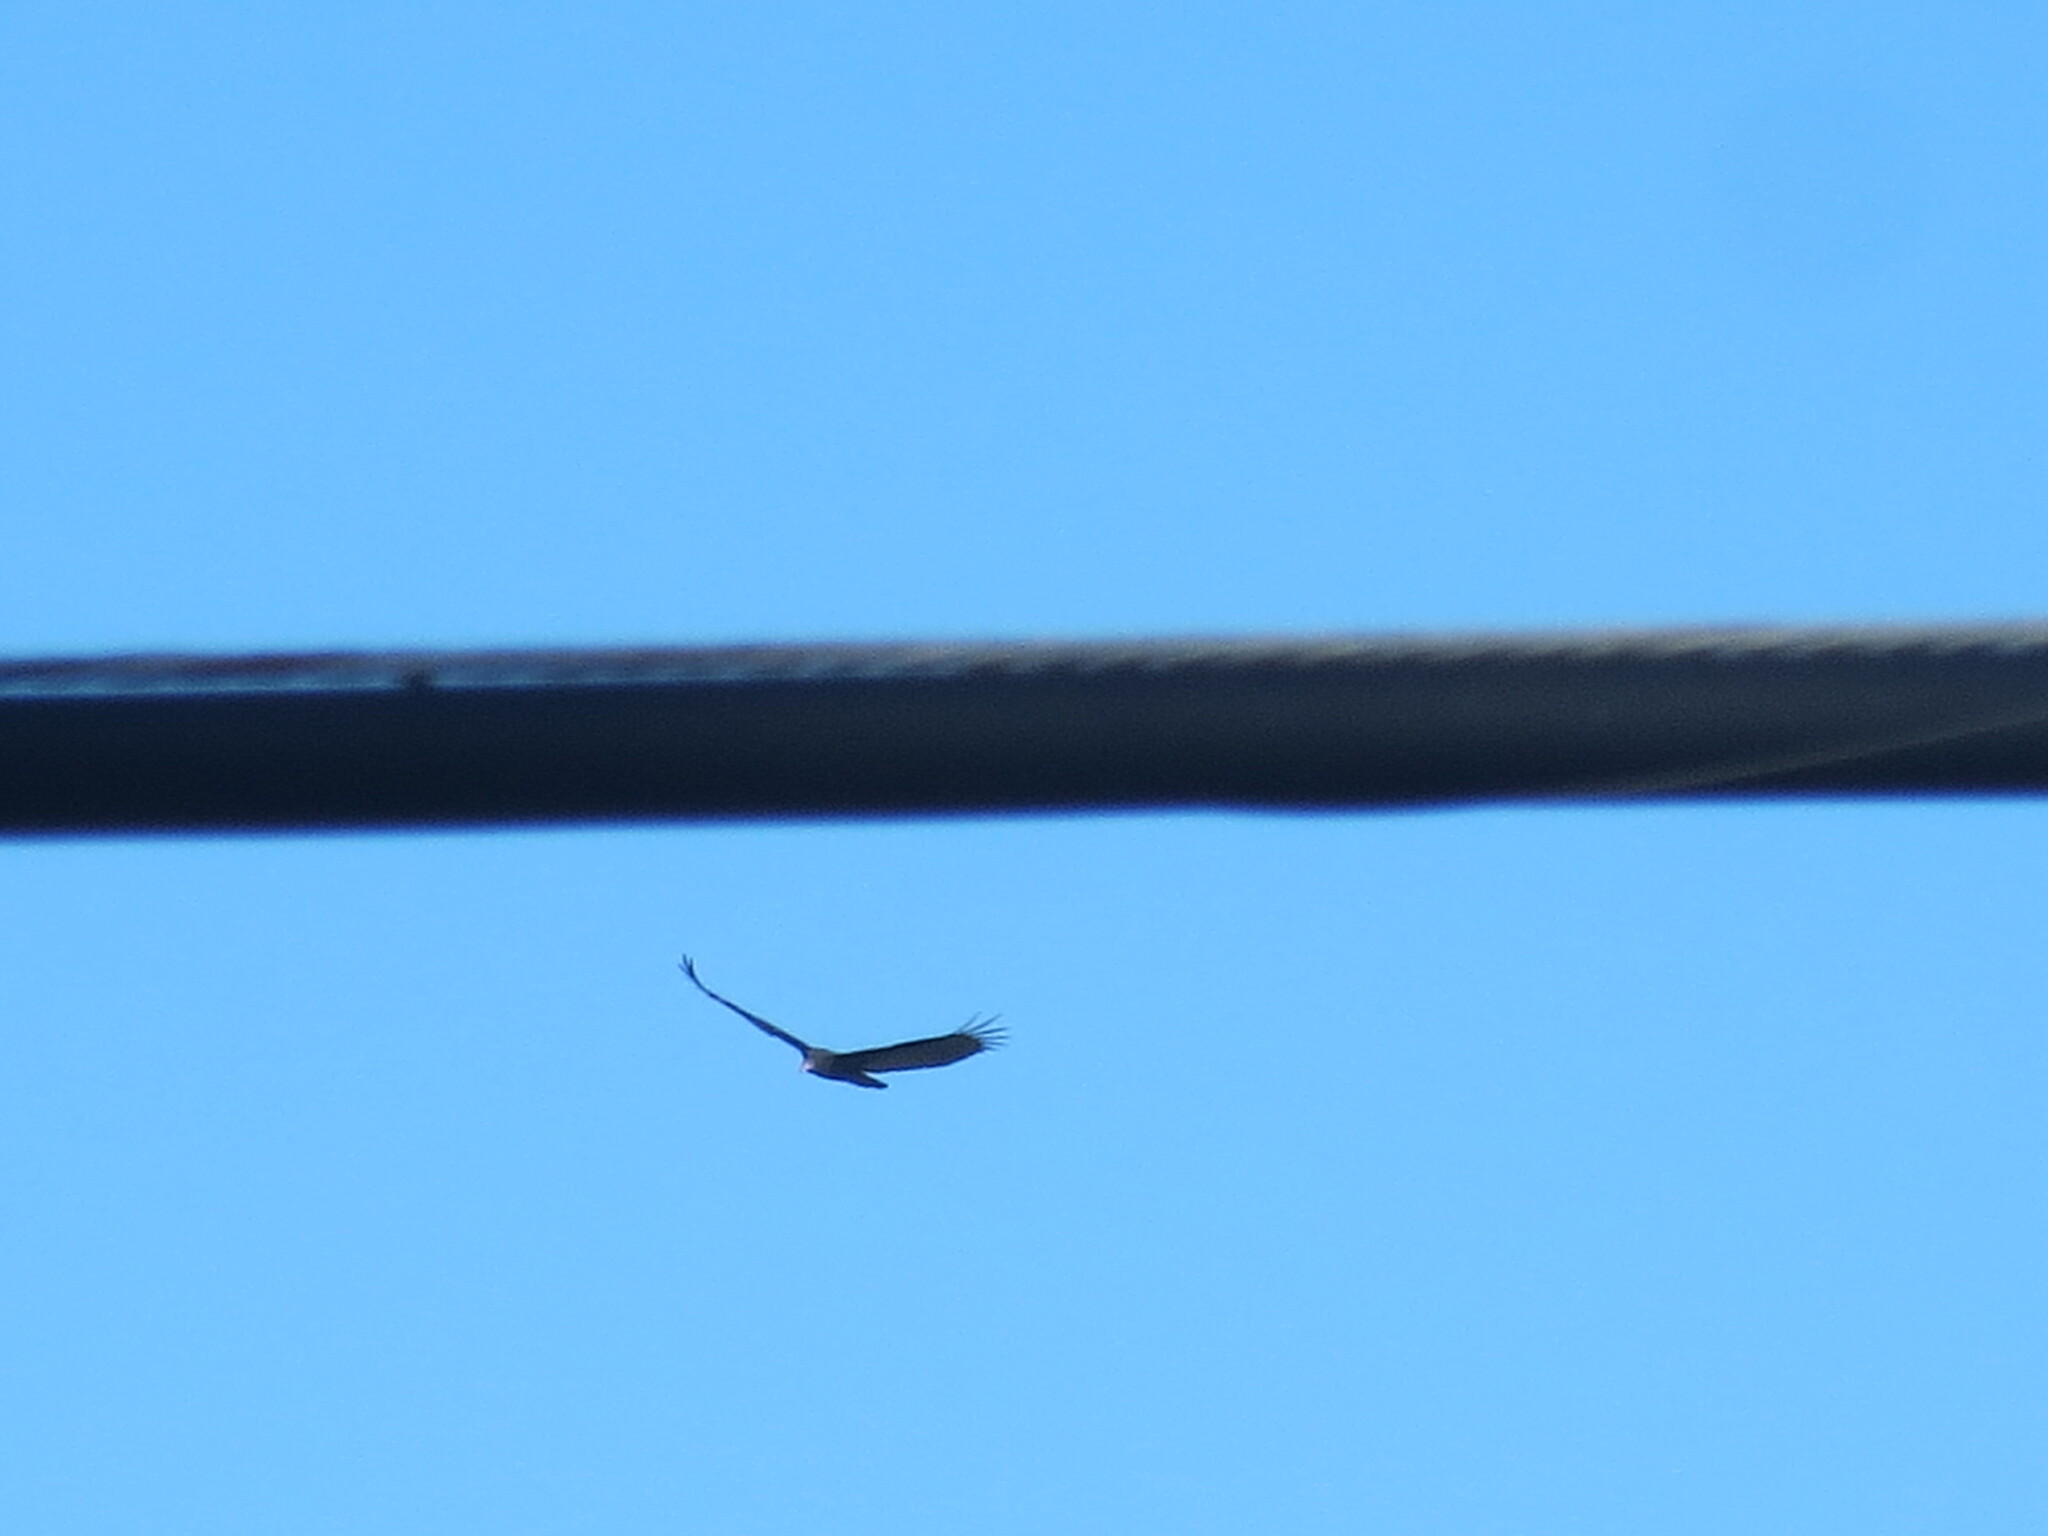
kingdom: Animalia
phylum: Chordata
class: Aves
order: Accipitriformes
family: Cathartidae
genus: Cathartes
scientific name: Cathartes aura
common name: Turkey vulture
